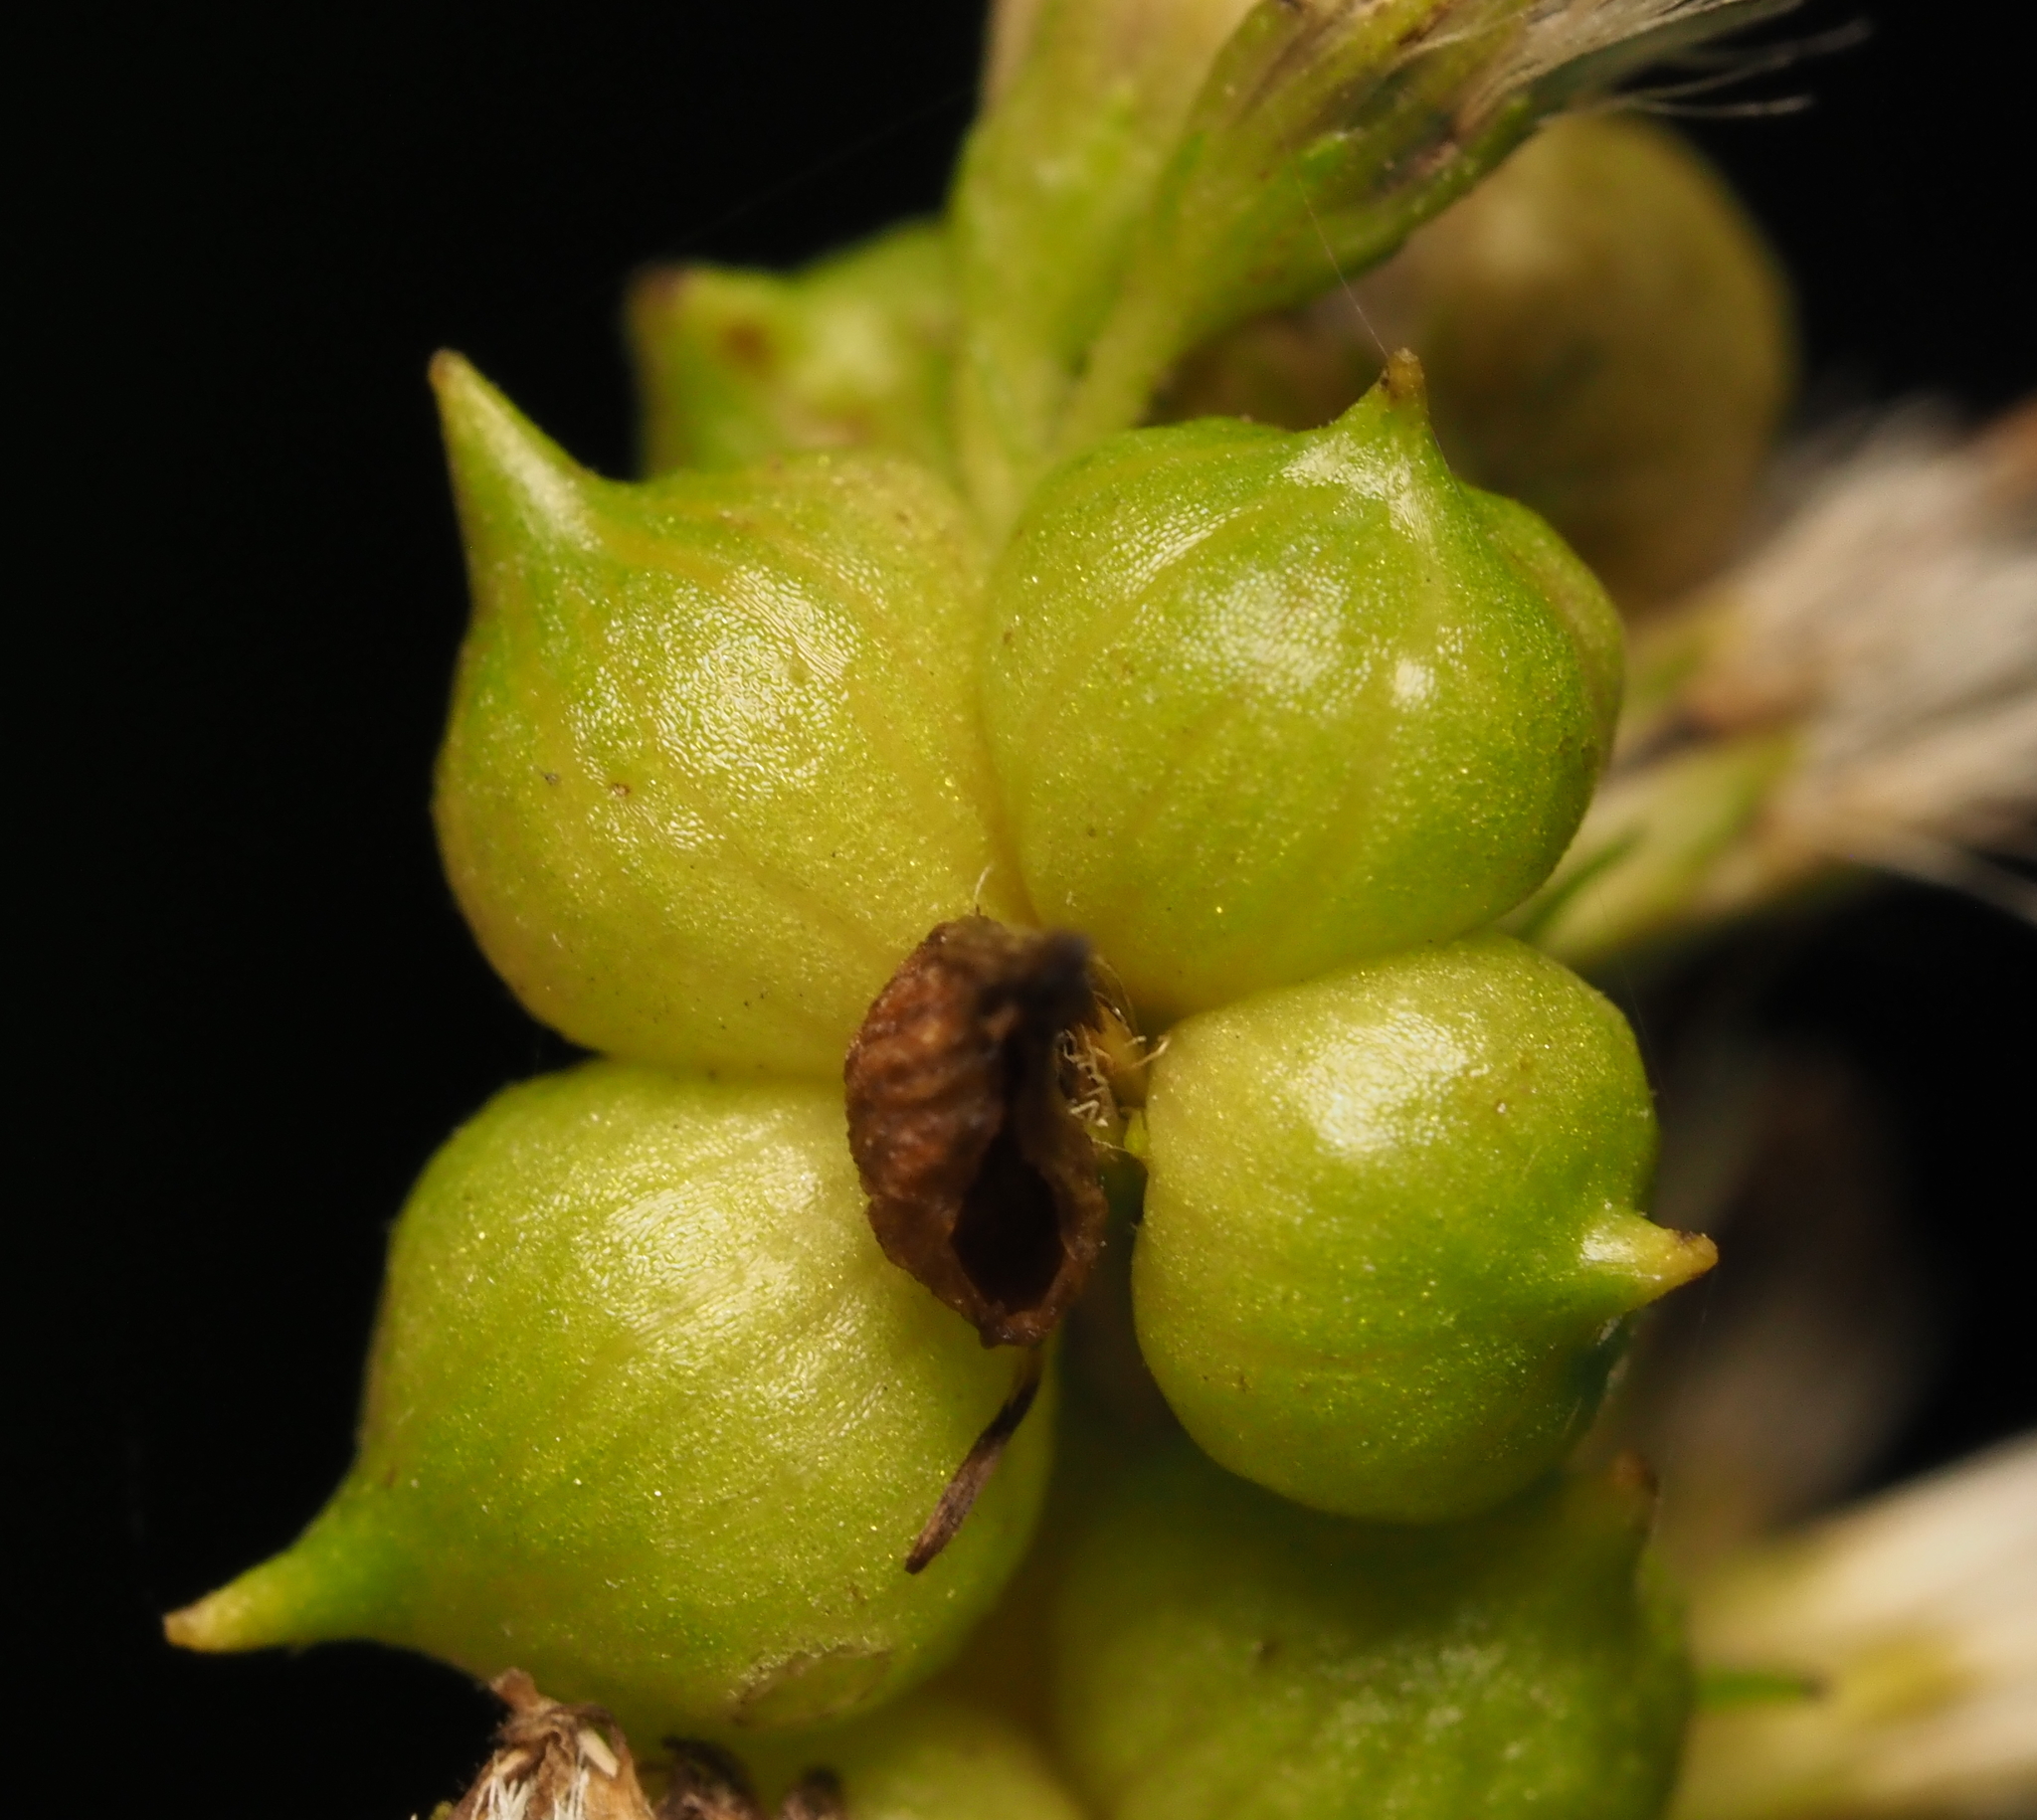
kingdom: Animalia
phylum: Arthropoda
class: Insecta
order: Diptera
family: Cecidomyiidae
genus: Schizomyia
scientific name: Schizomyia racemicola
